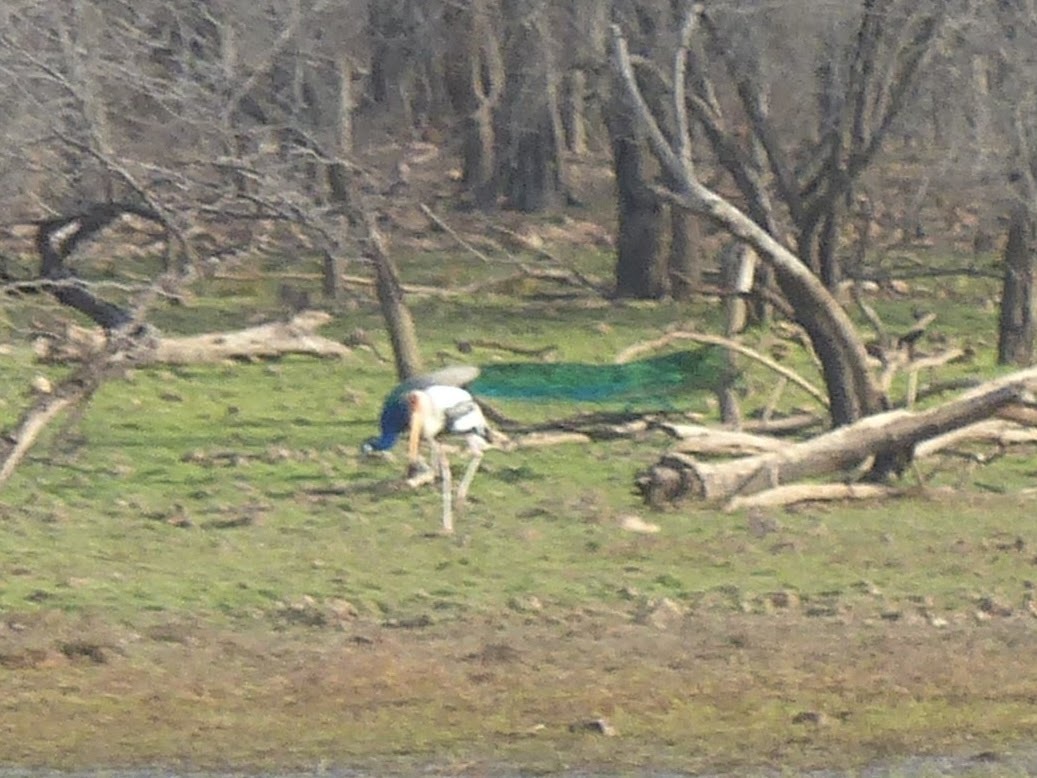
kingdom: Animalia
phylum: Chordata
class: Aves
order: Galliformes
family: Phasianidae
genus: Pavo
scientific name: Pavo cristatus
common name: Indian peafowl
